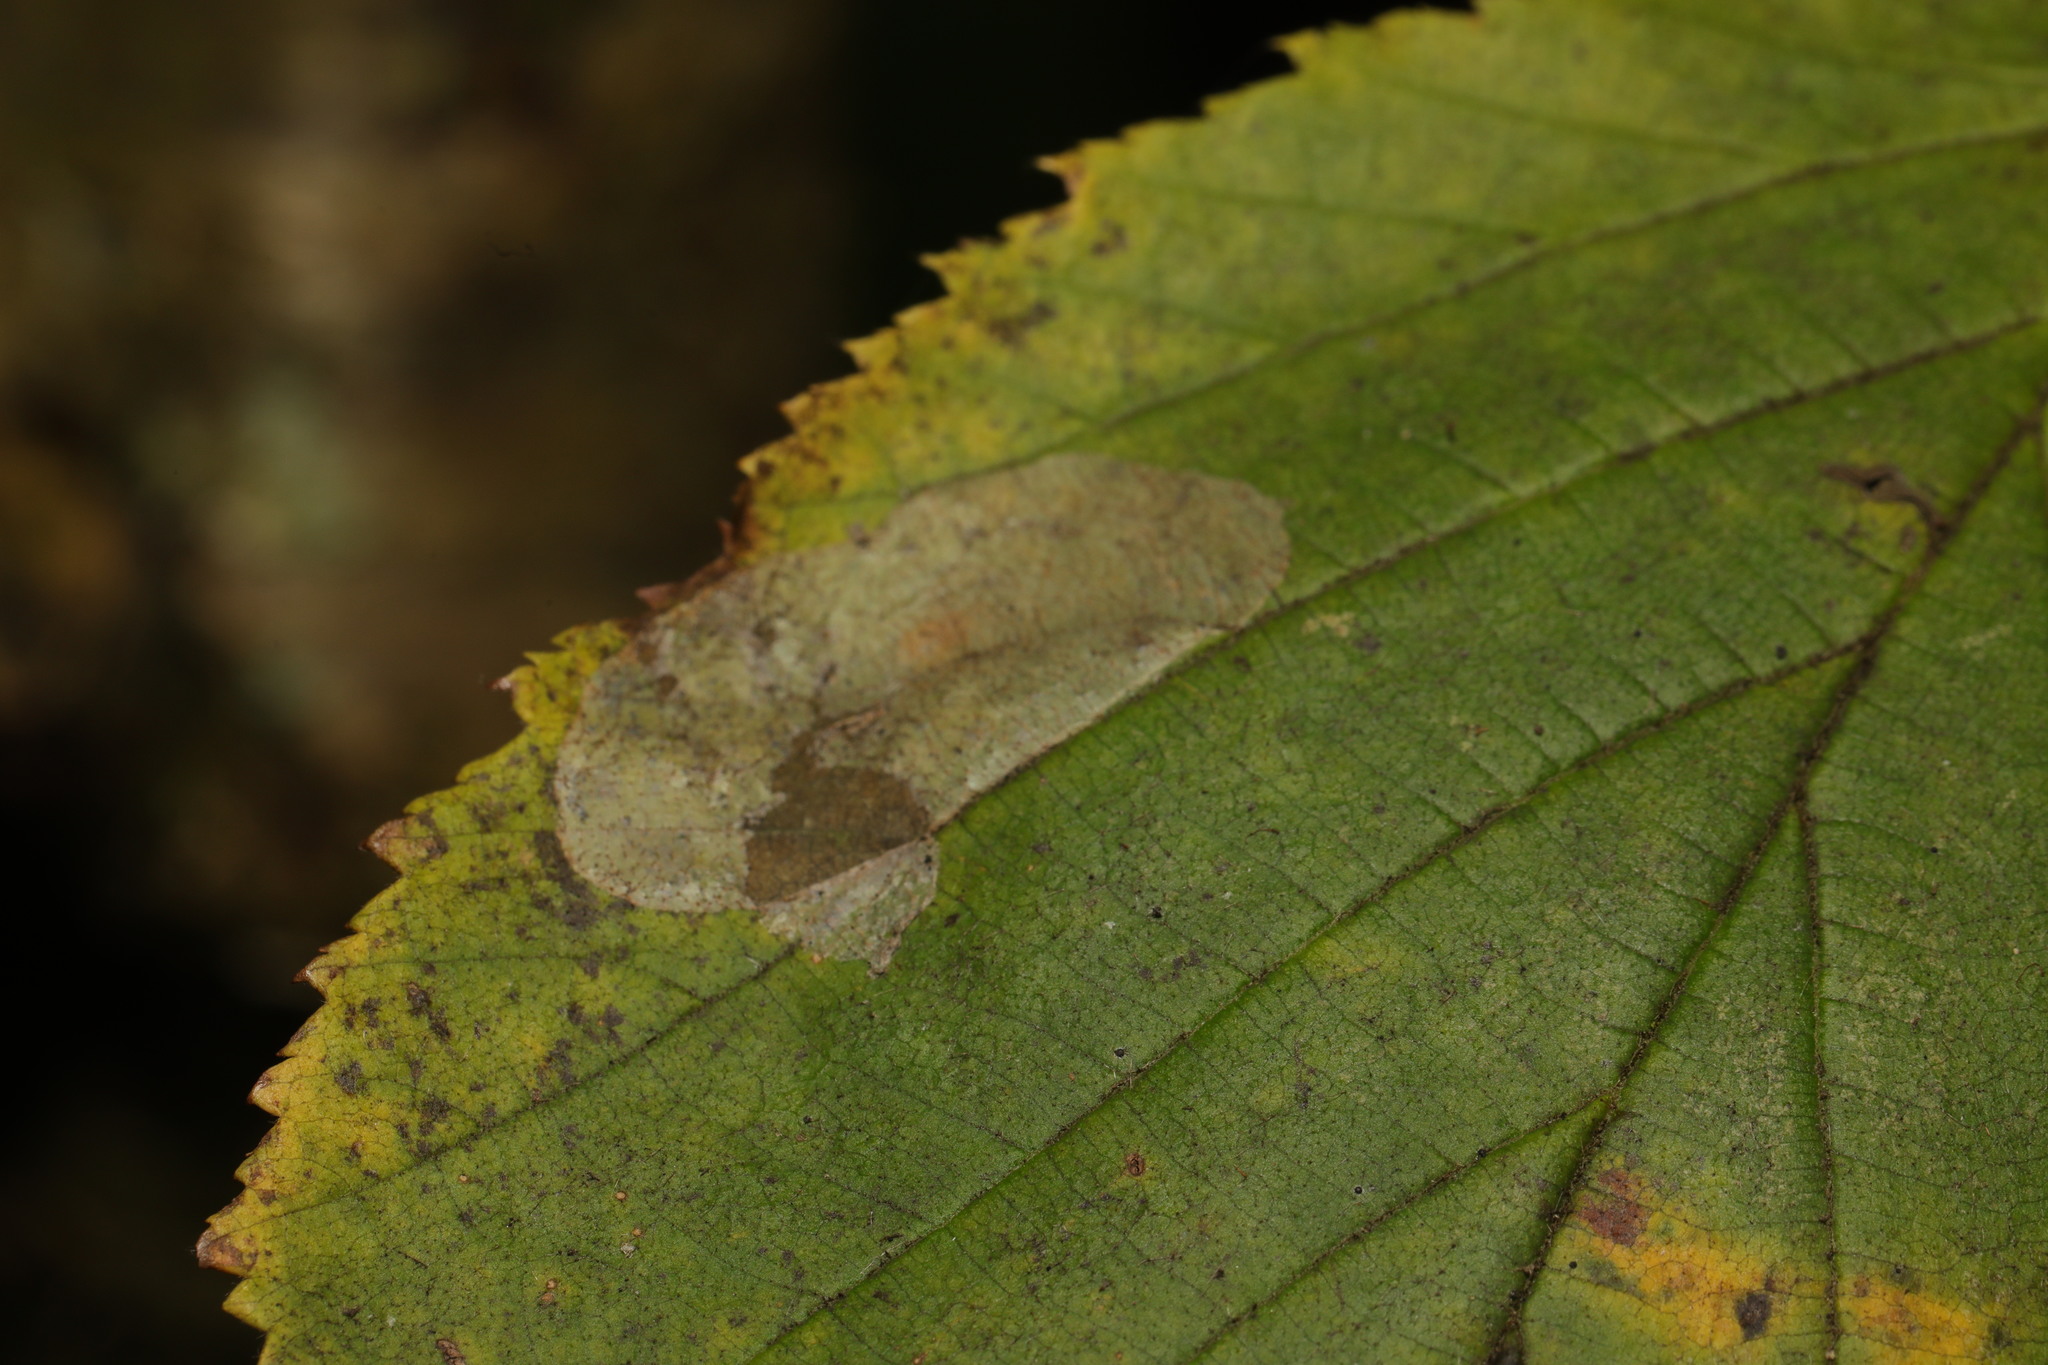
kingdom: Animalia
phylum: Arthropoda
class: Insecta
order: Lepidoptera
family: Gracillariidae
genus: Phyllonorycter
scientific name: Phyllonorycter coryli
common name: Nut-leaf blister moth
